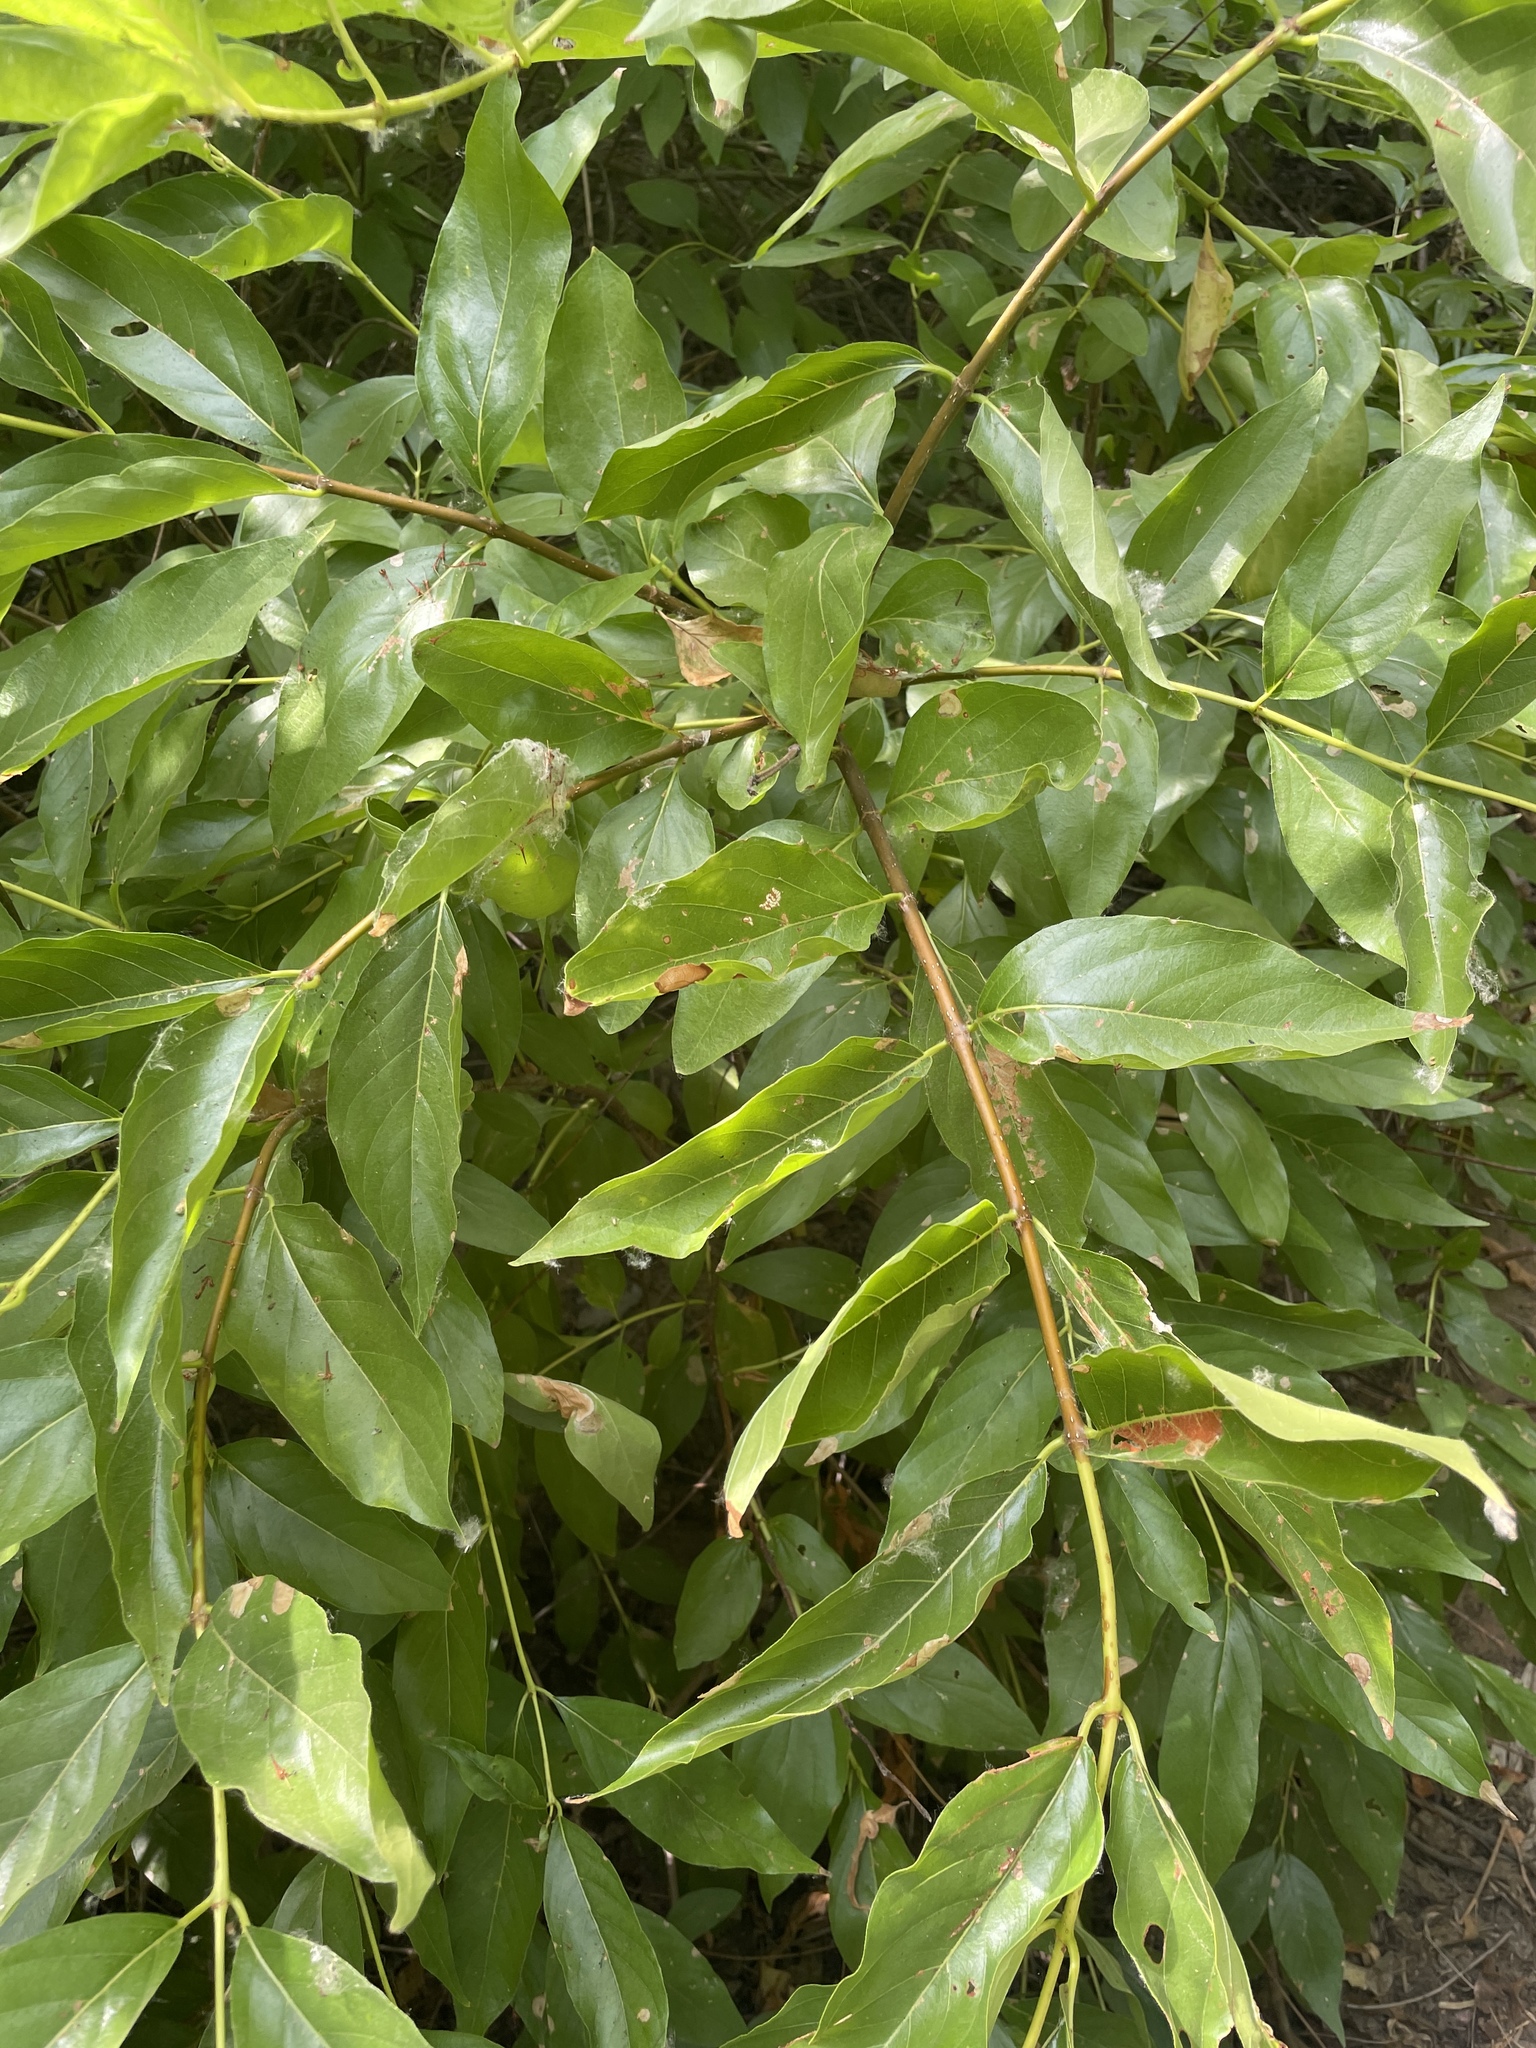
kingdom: Plantae
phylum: Tracheophyta
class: Magnoliopsida
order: Gentianales
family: Rubiaceae
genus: Cephalanthus
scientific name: Cephalanthus occidentalis
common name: Button-willow
